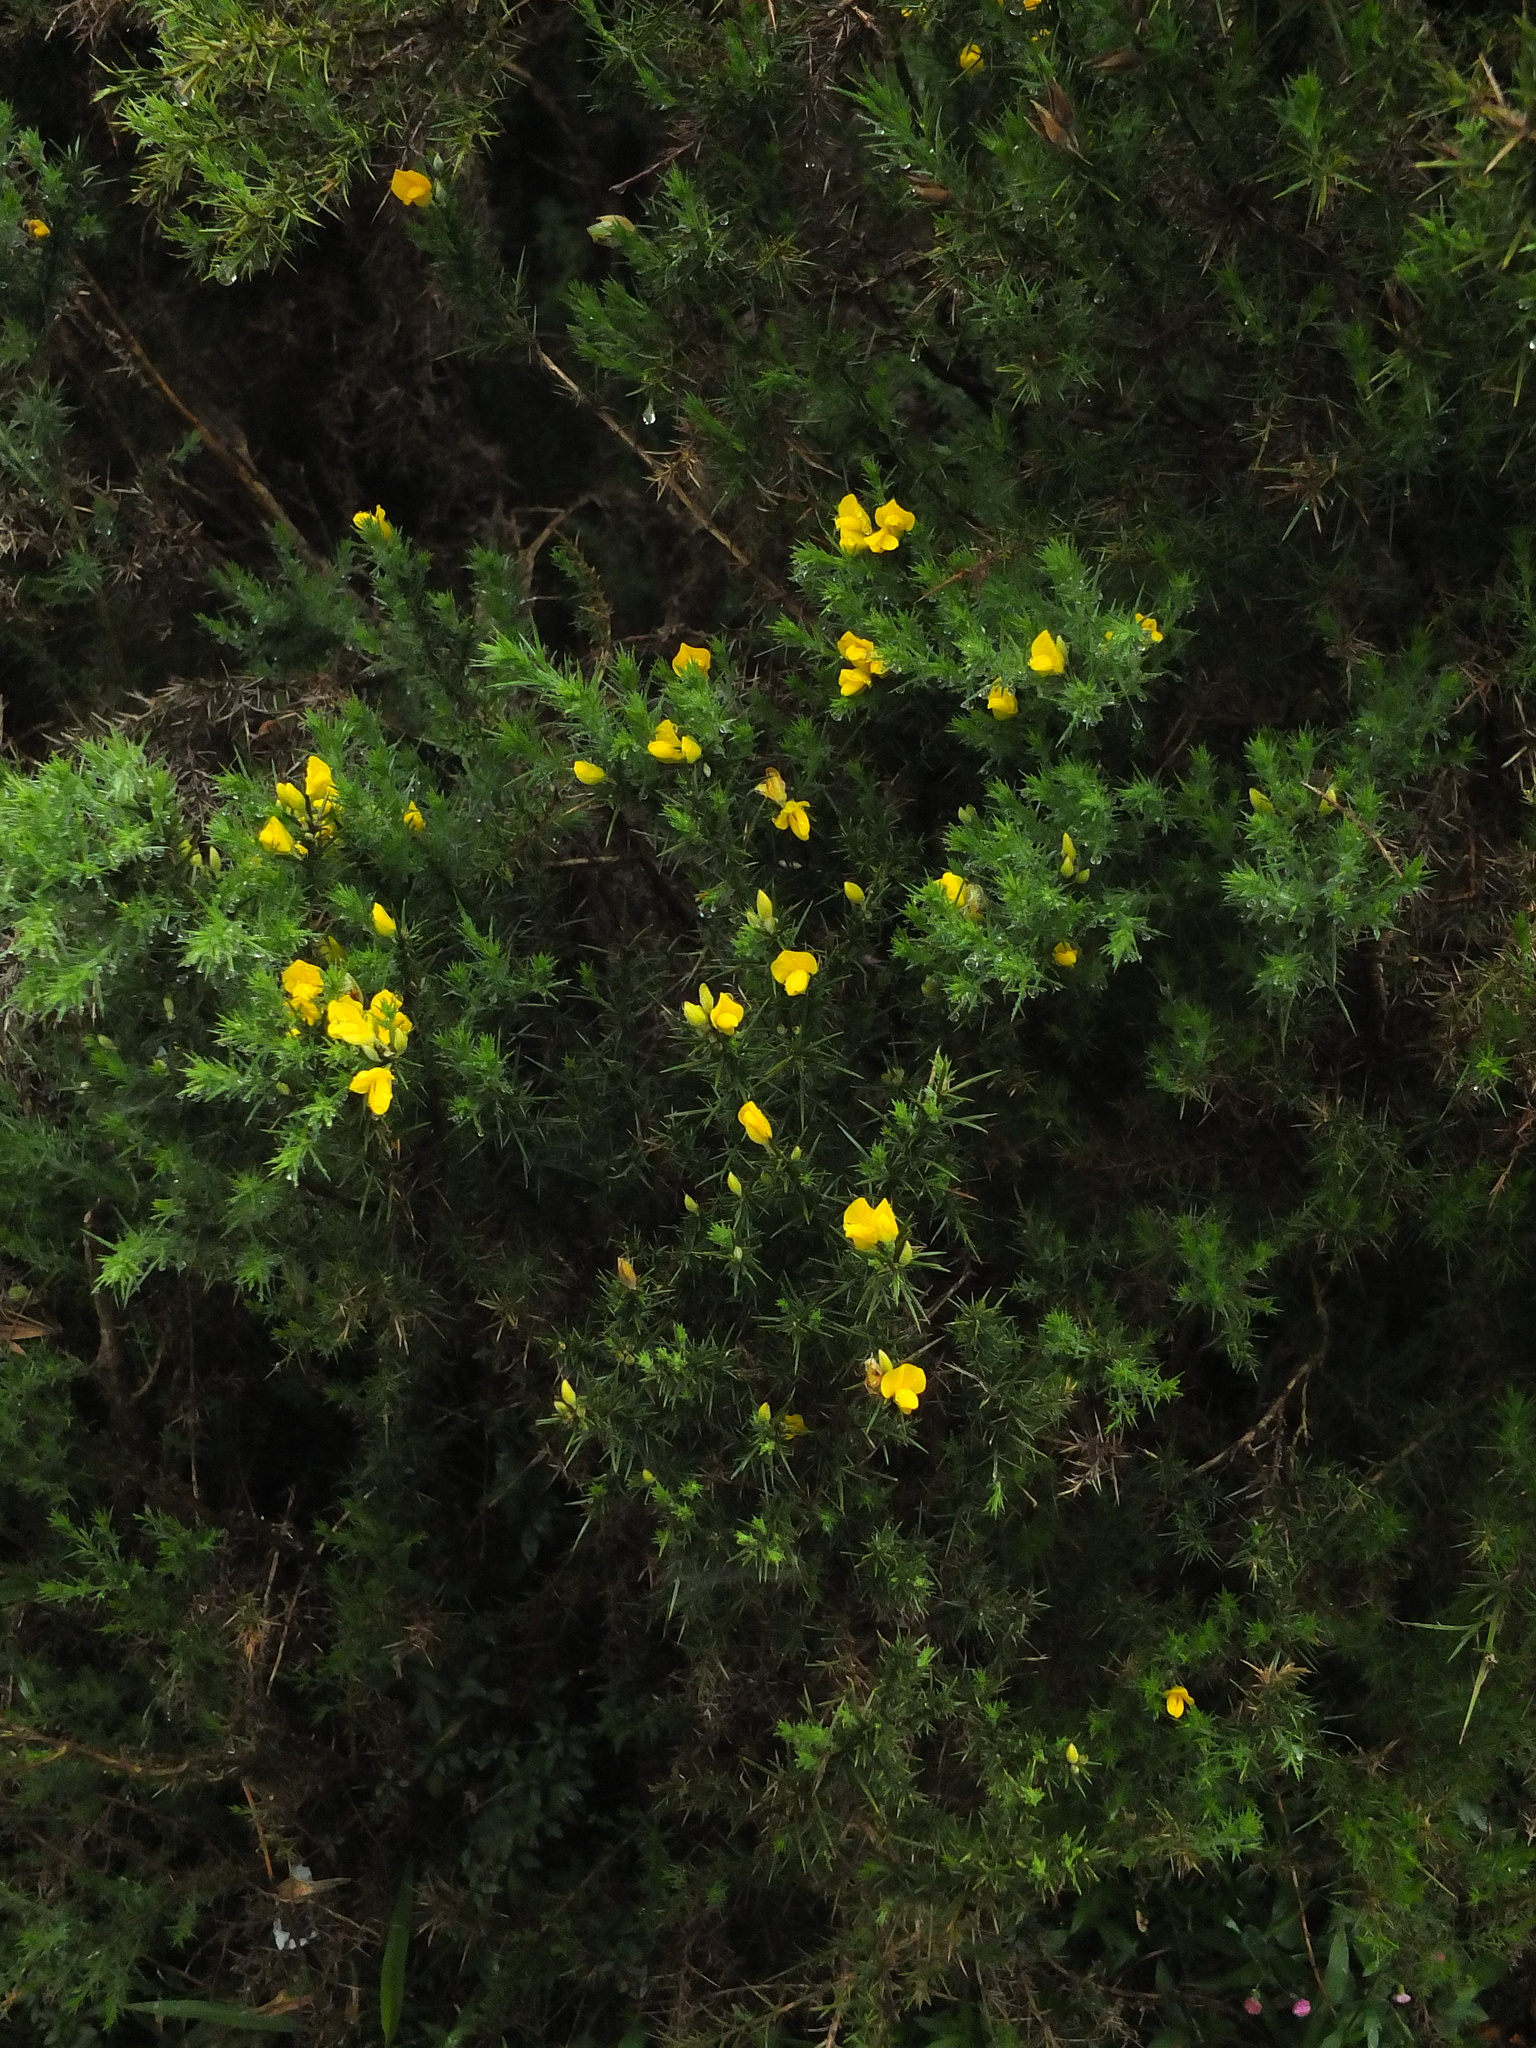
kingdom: Plantae
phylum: Tracheophyta
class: Magnoliopsida
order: Fabales
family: Fabaceae
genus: Ulex
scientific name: Ulex europaeus
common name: Common gorse
